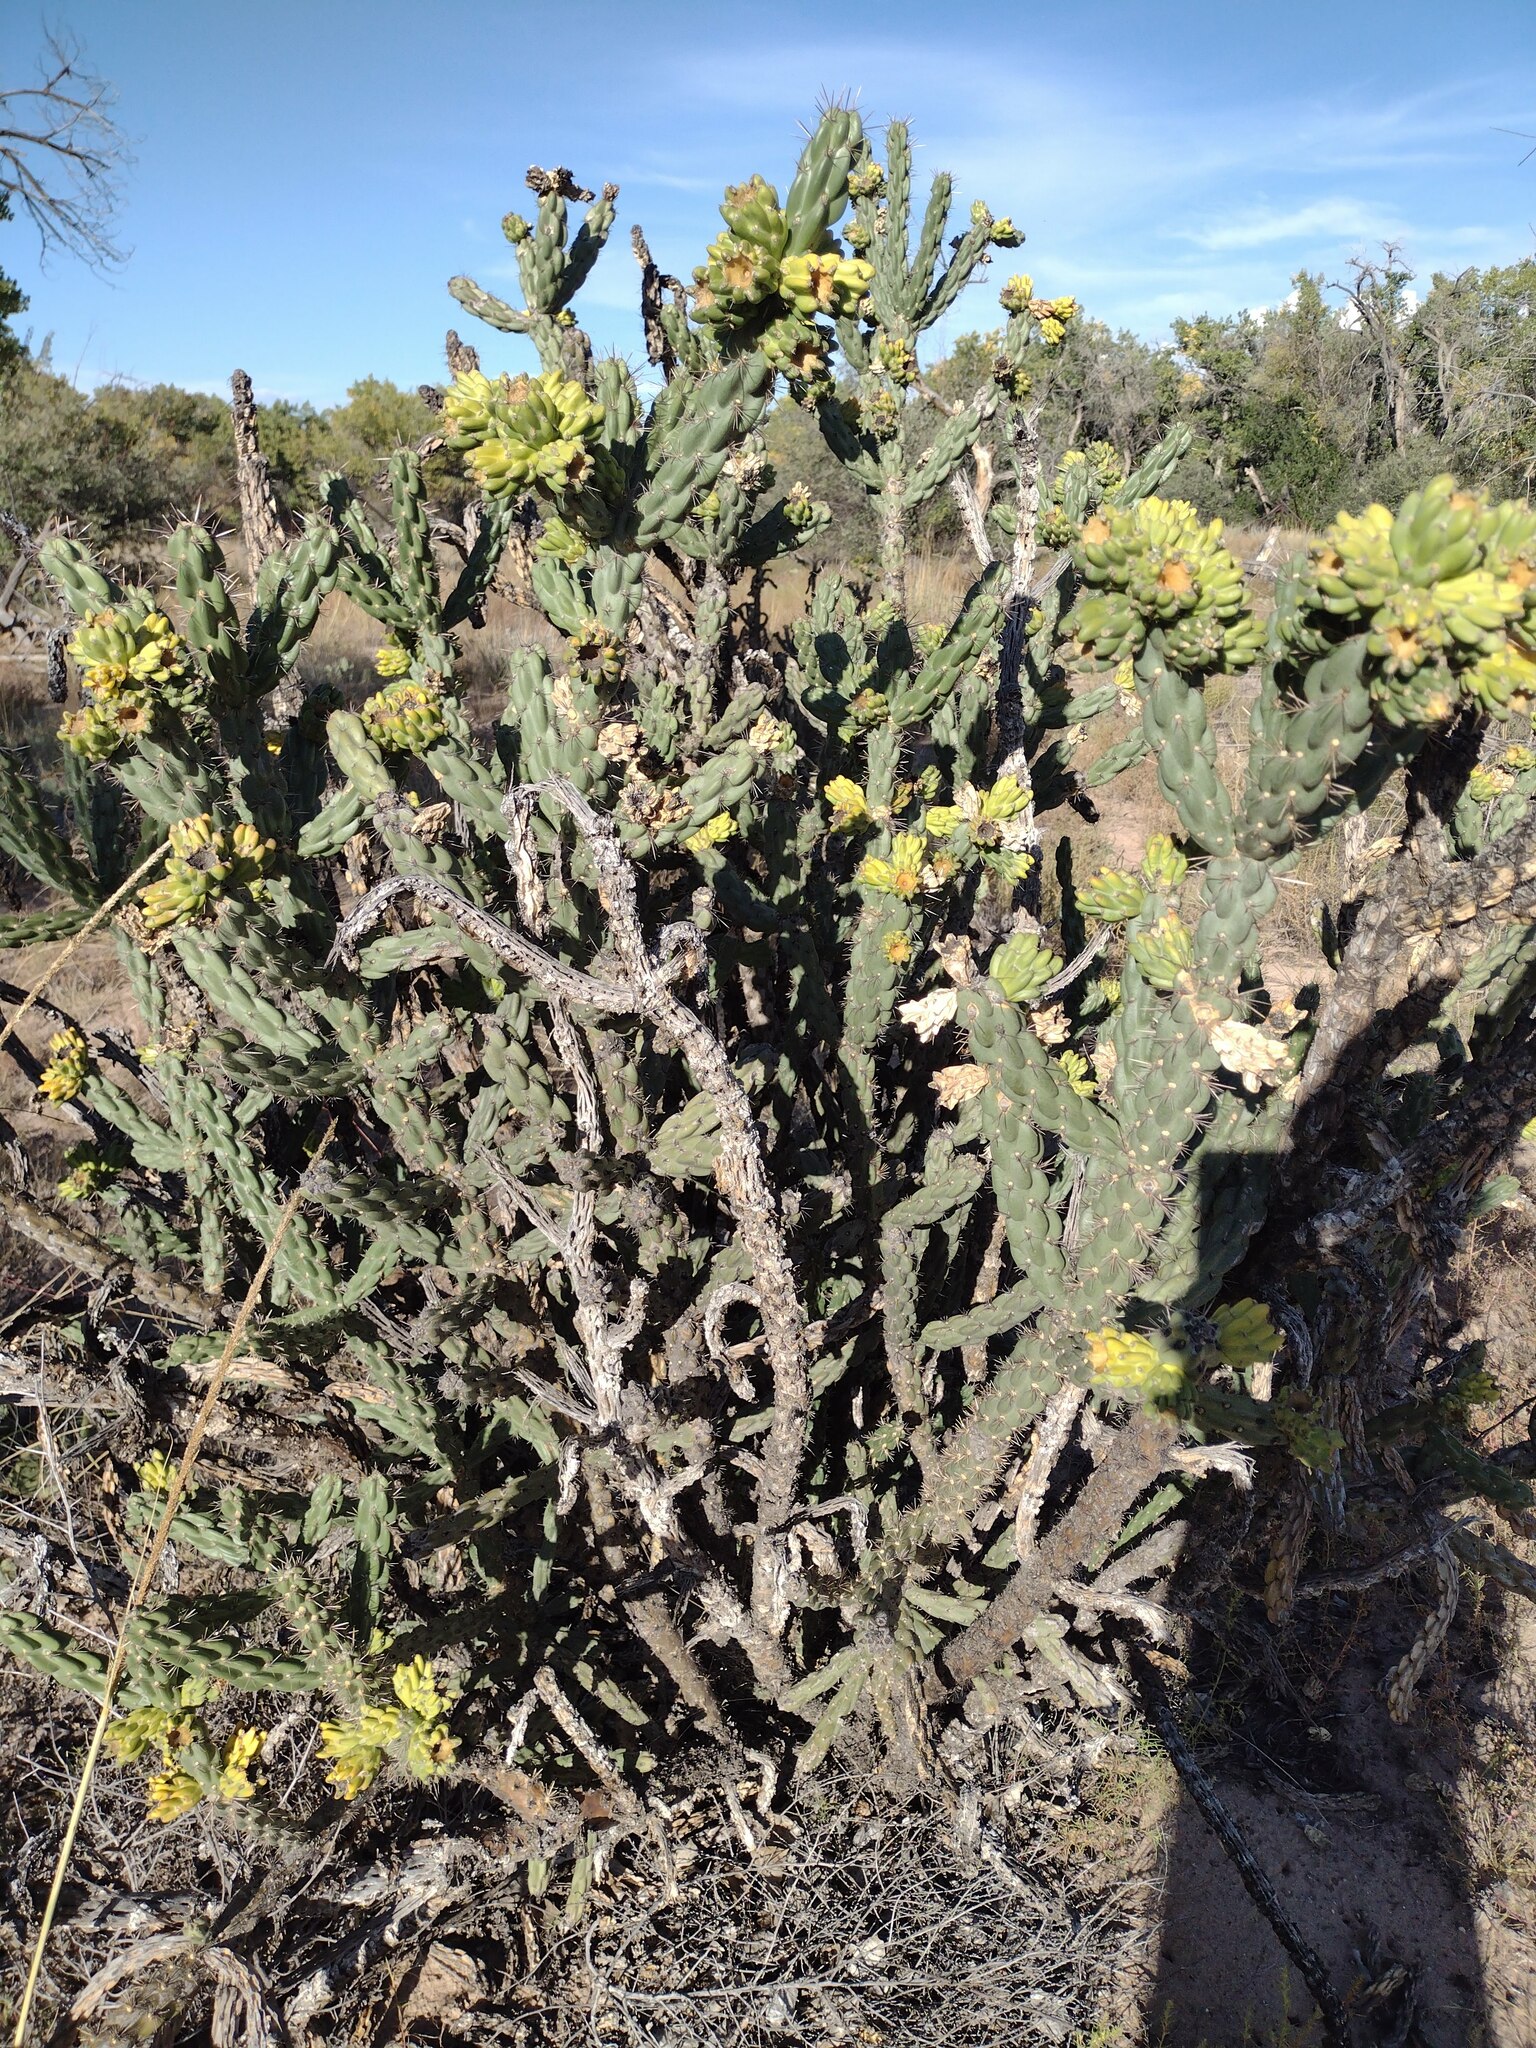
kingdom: Plantae
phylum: Tracheophyta
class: Magnoliopsida
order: Caryophyllales
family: Cactaceae
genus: Cylindropuntia
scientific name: Cylindropuntia imbricata
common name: Candelabrum cactus
